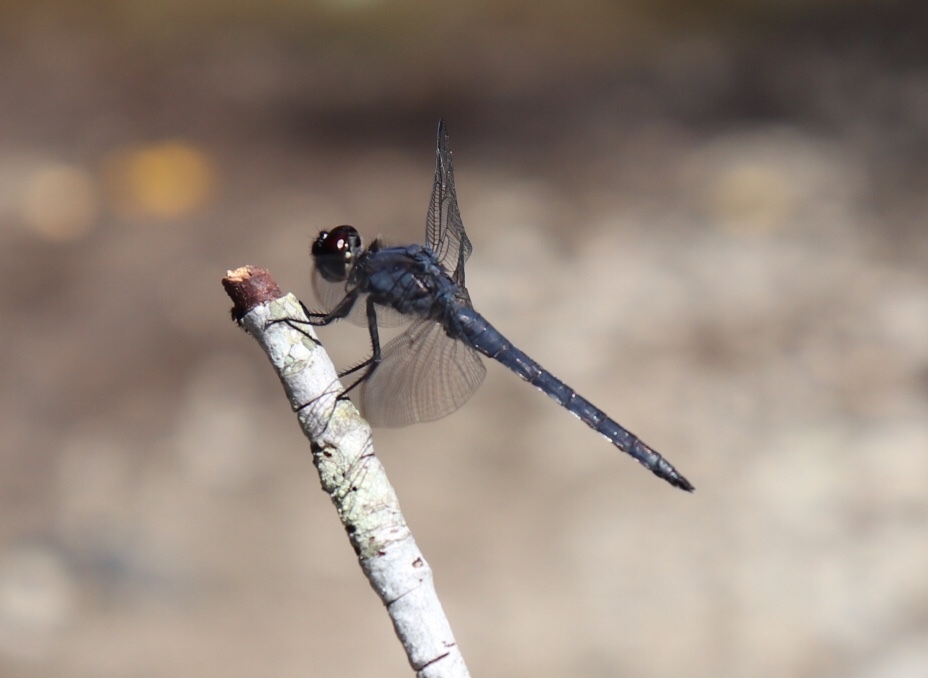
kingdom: Animalia
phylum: Arthropoda
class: Insecta
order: Odonata
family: Libellulidae
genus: Libellula
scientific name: Libellula incesta
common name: Slaty skimmer
